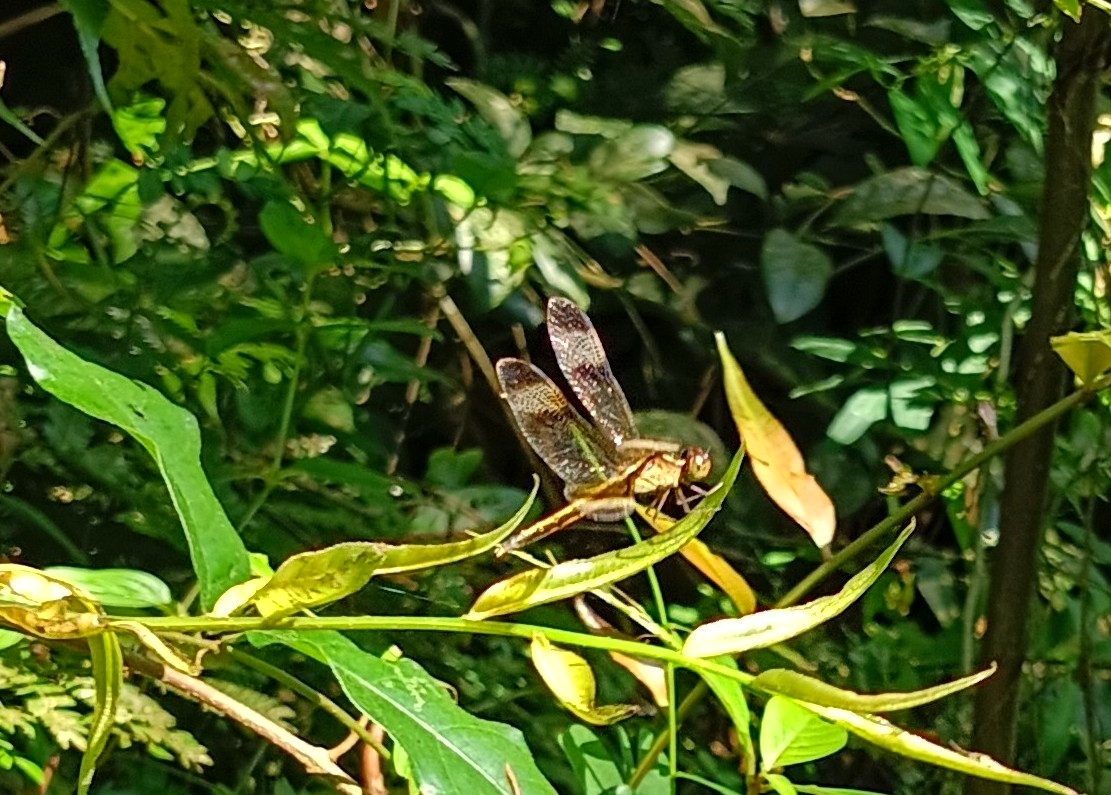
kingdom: Animalia
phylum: Arthropoda
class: Insecta
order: Odonata
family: Libellulidae
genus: Neurothemis
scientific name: Neurothemis tullia
